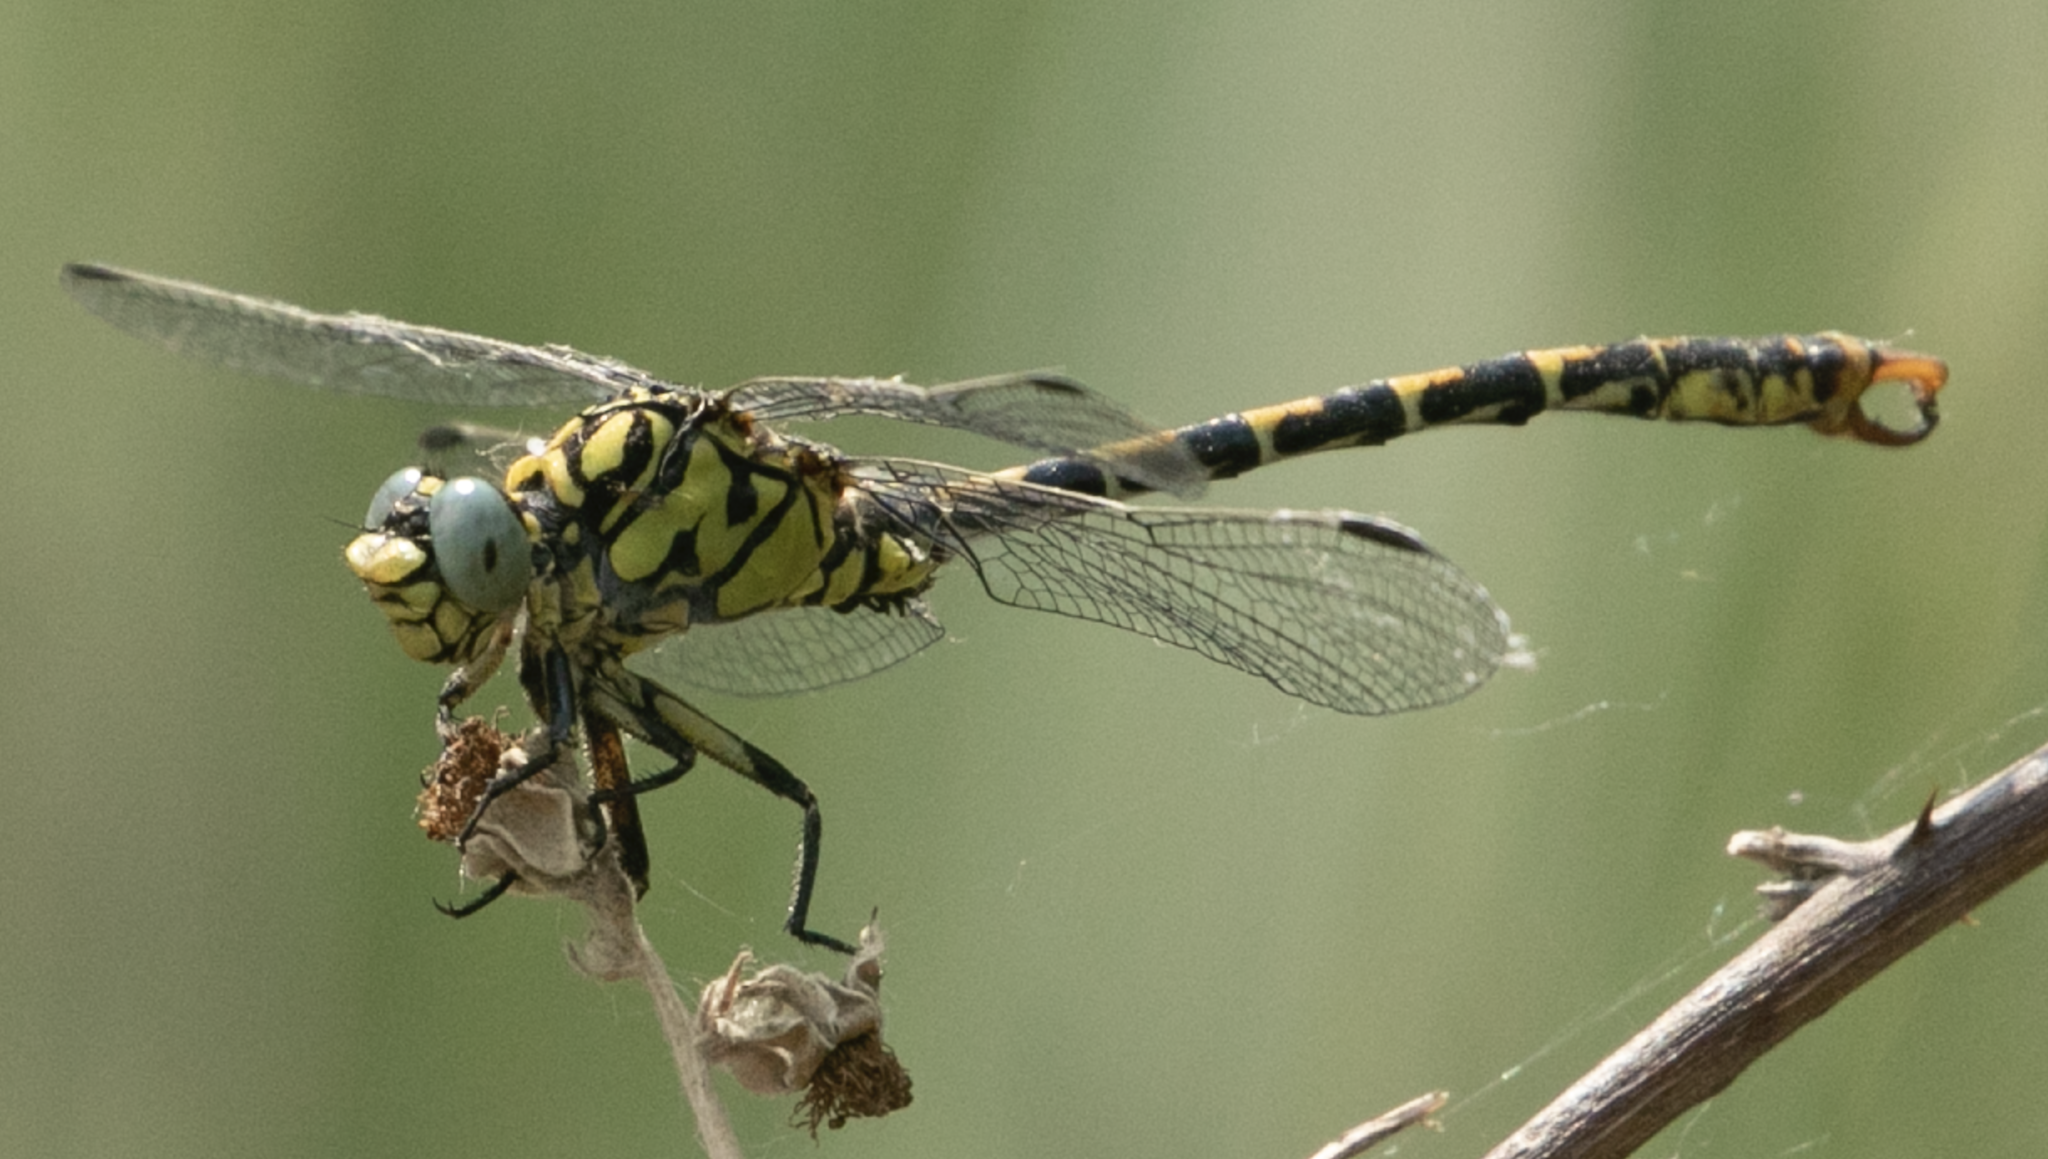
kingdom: Animalia
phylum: Arthropoda
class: Insecta
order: Odonata
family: Gomphidae
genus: Onychogomphus
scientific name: Onychogomphus forcipatus
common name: Small pincertail
